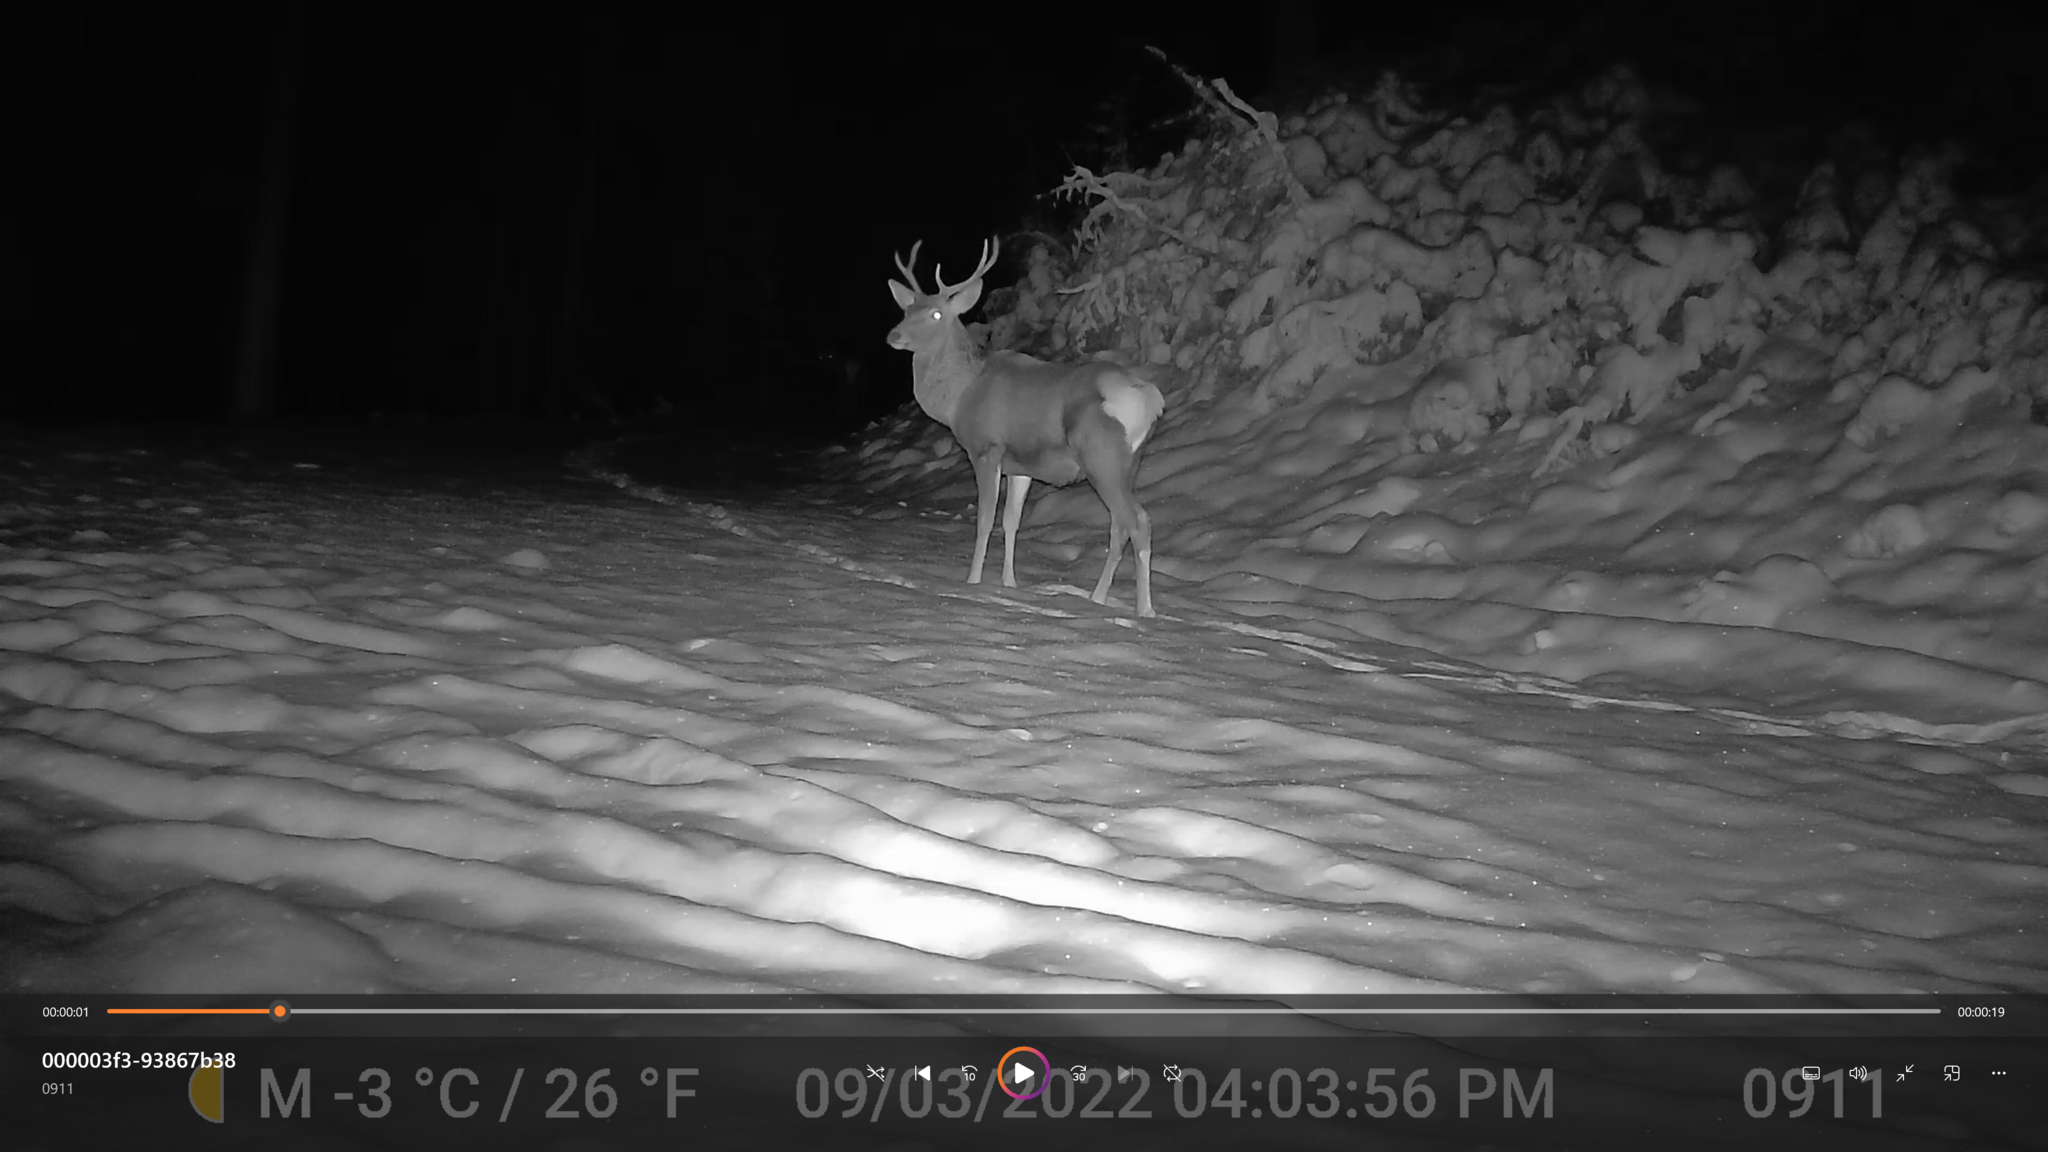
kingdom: Animalia
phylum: Chordata
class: Mammalia
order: Artiodactyla
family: Cervidae
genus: Cervus
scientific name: Cervus elaphus
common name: Red deer
